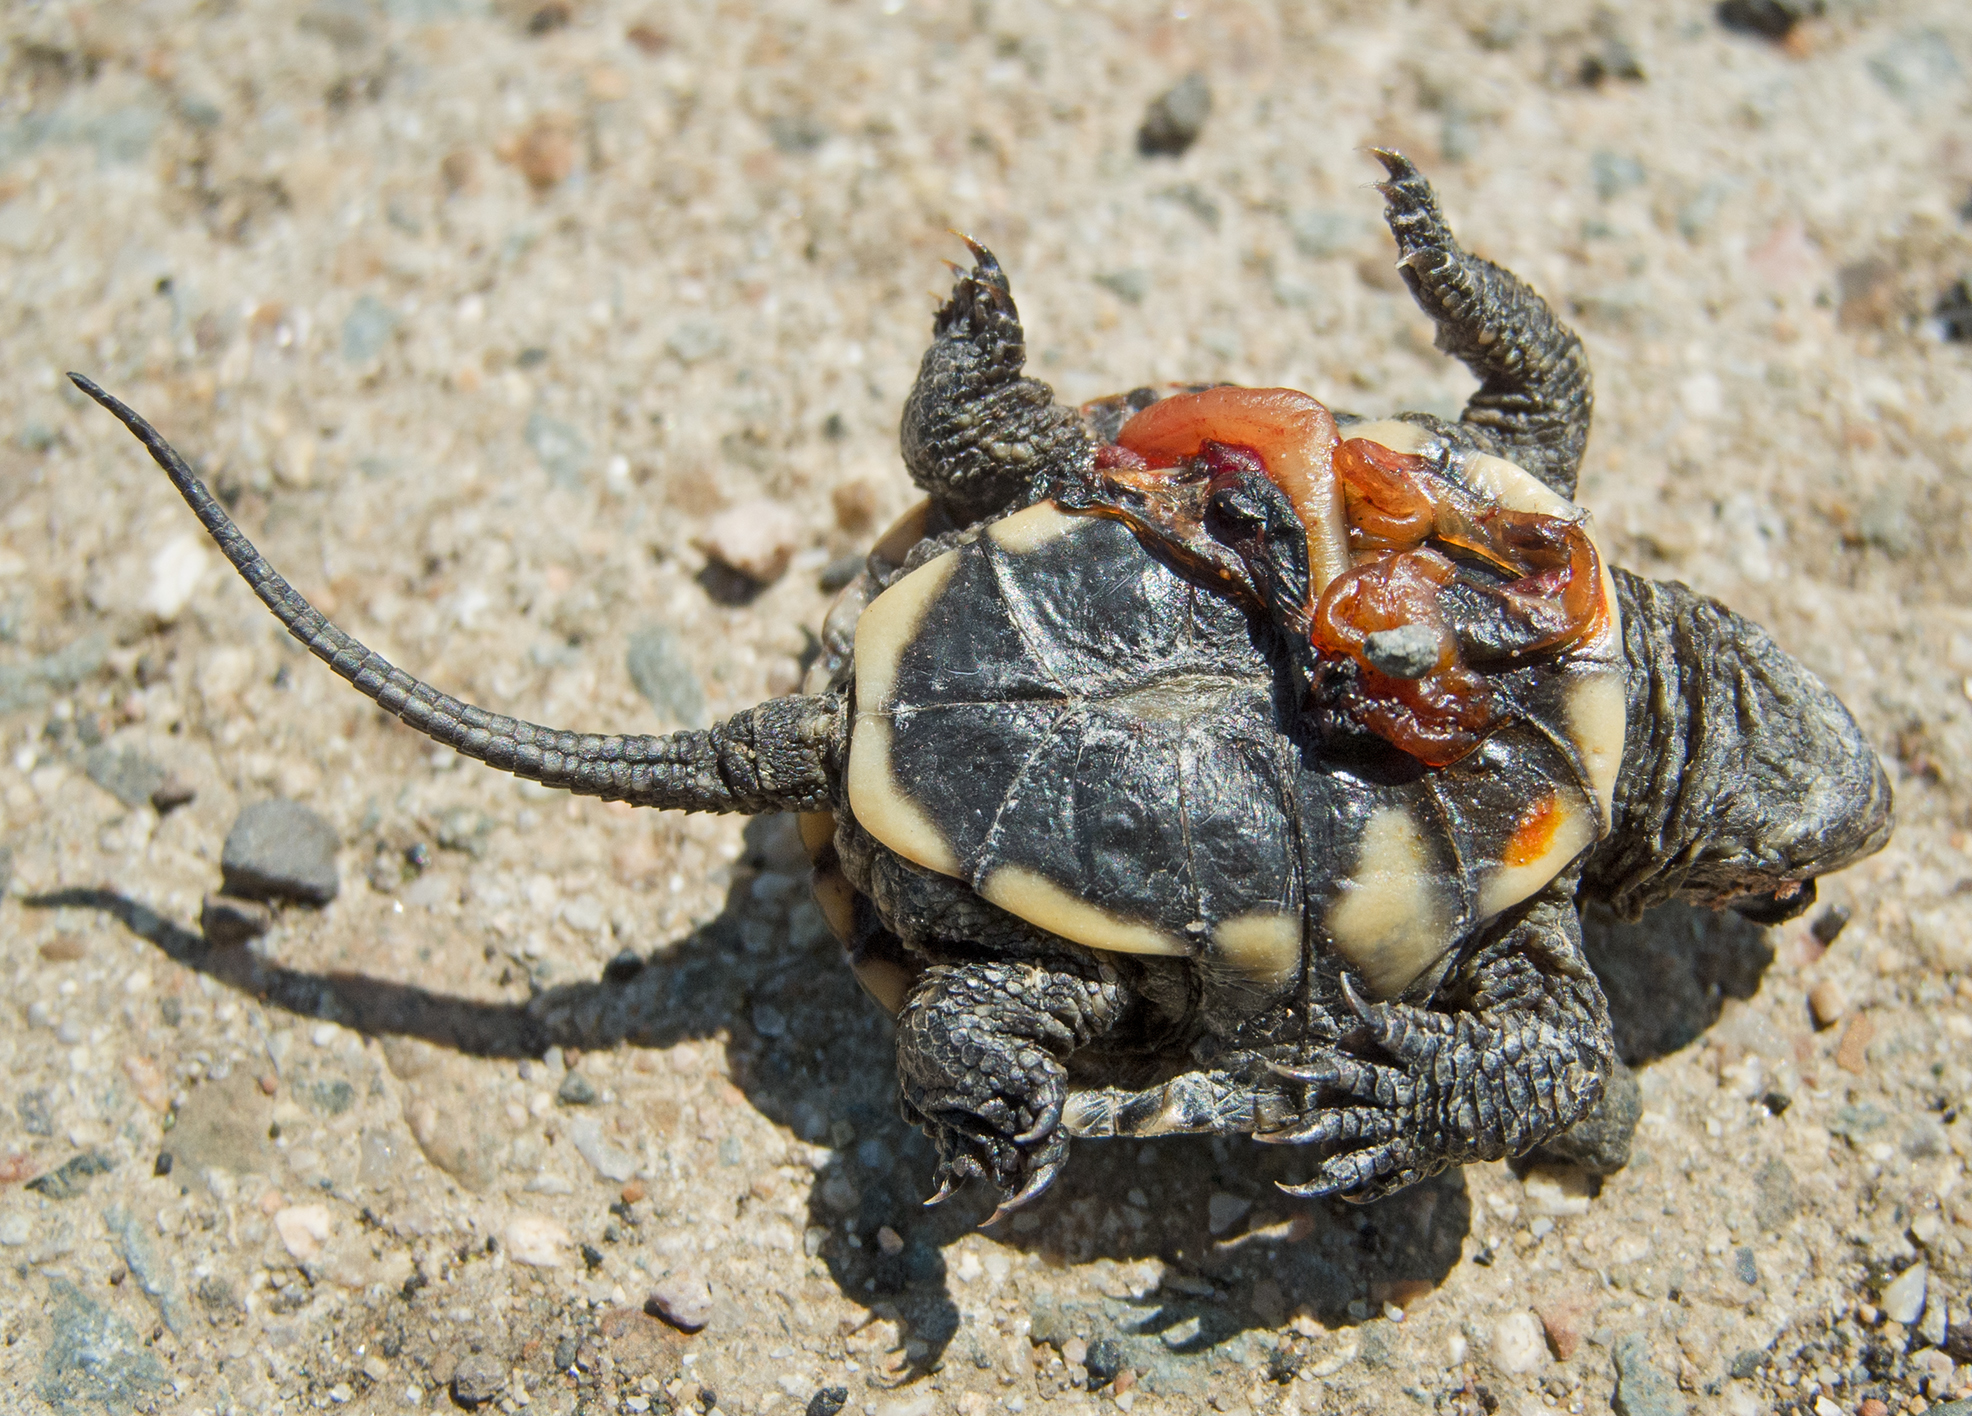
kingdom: Animalia
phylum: Chordata
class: Testudines
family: Emydidae
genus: Emys
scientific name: Emys orbicularis
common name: European pond turtle
